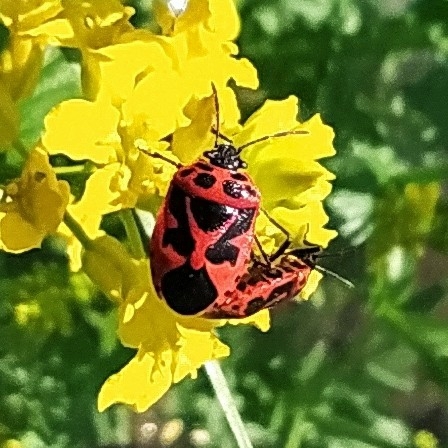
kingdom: Animalia
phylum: Arthropoda
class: Insecta
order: Hemiptera
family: Pentatomidae
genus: Eurydema
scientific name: Eurydema dominulus
